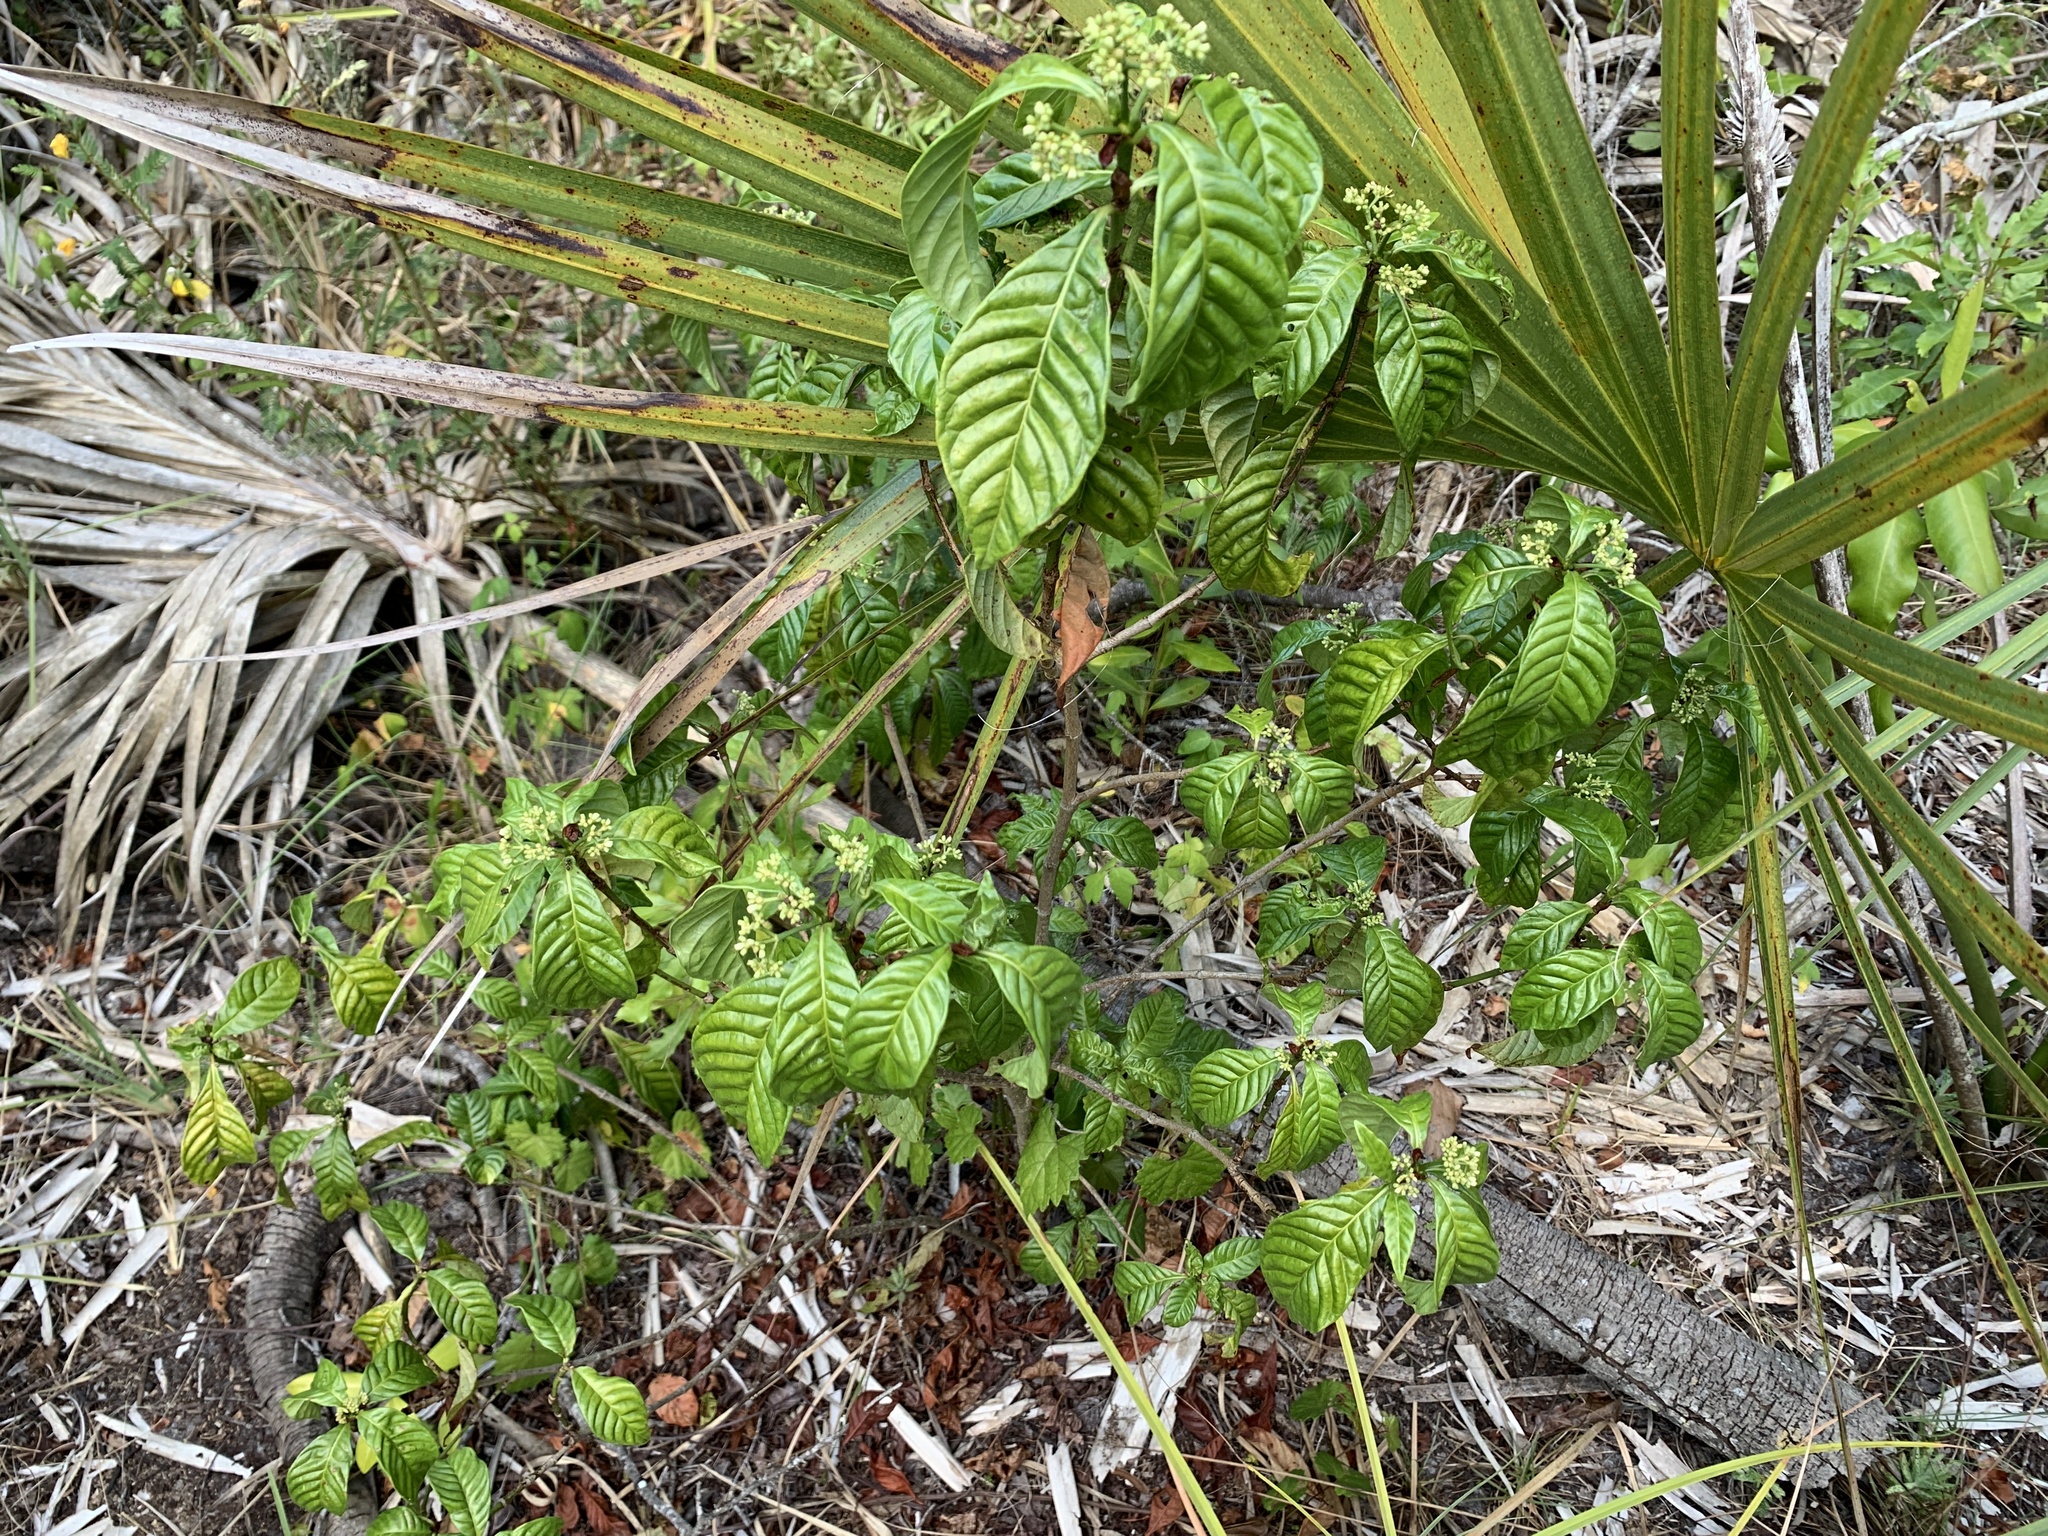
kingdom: Plantae
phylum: Tracheophyta
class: Magnoliopsida
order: Gentianales
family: Rubiaceae
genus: Psychotria
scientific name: Psychotria nervosa
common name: Bastard cankerberry
